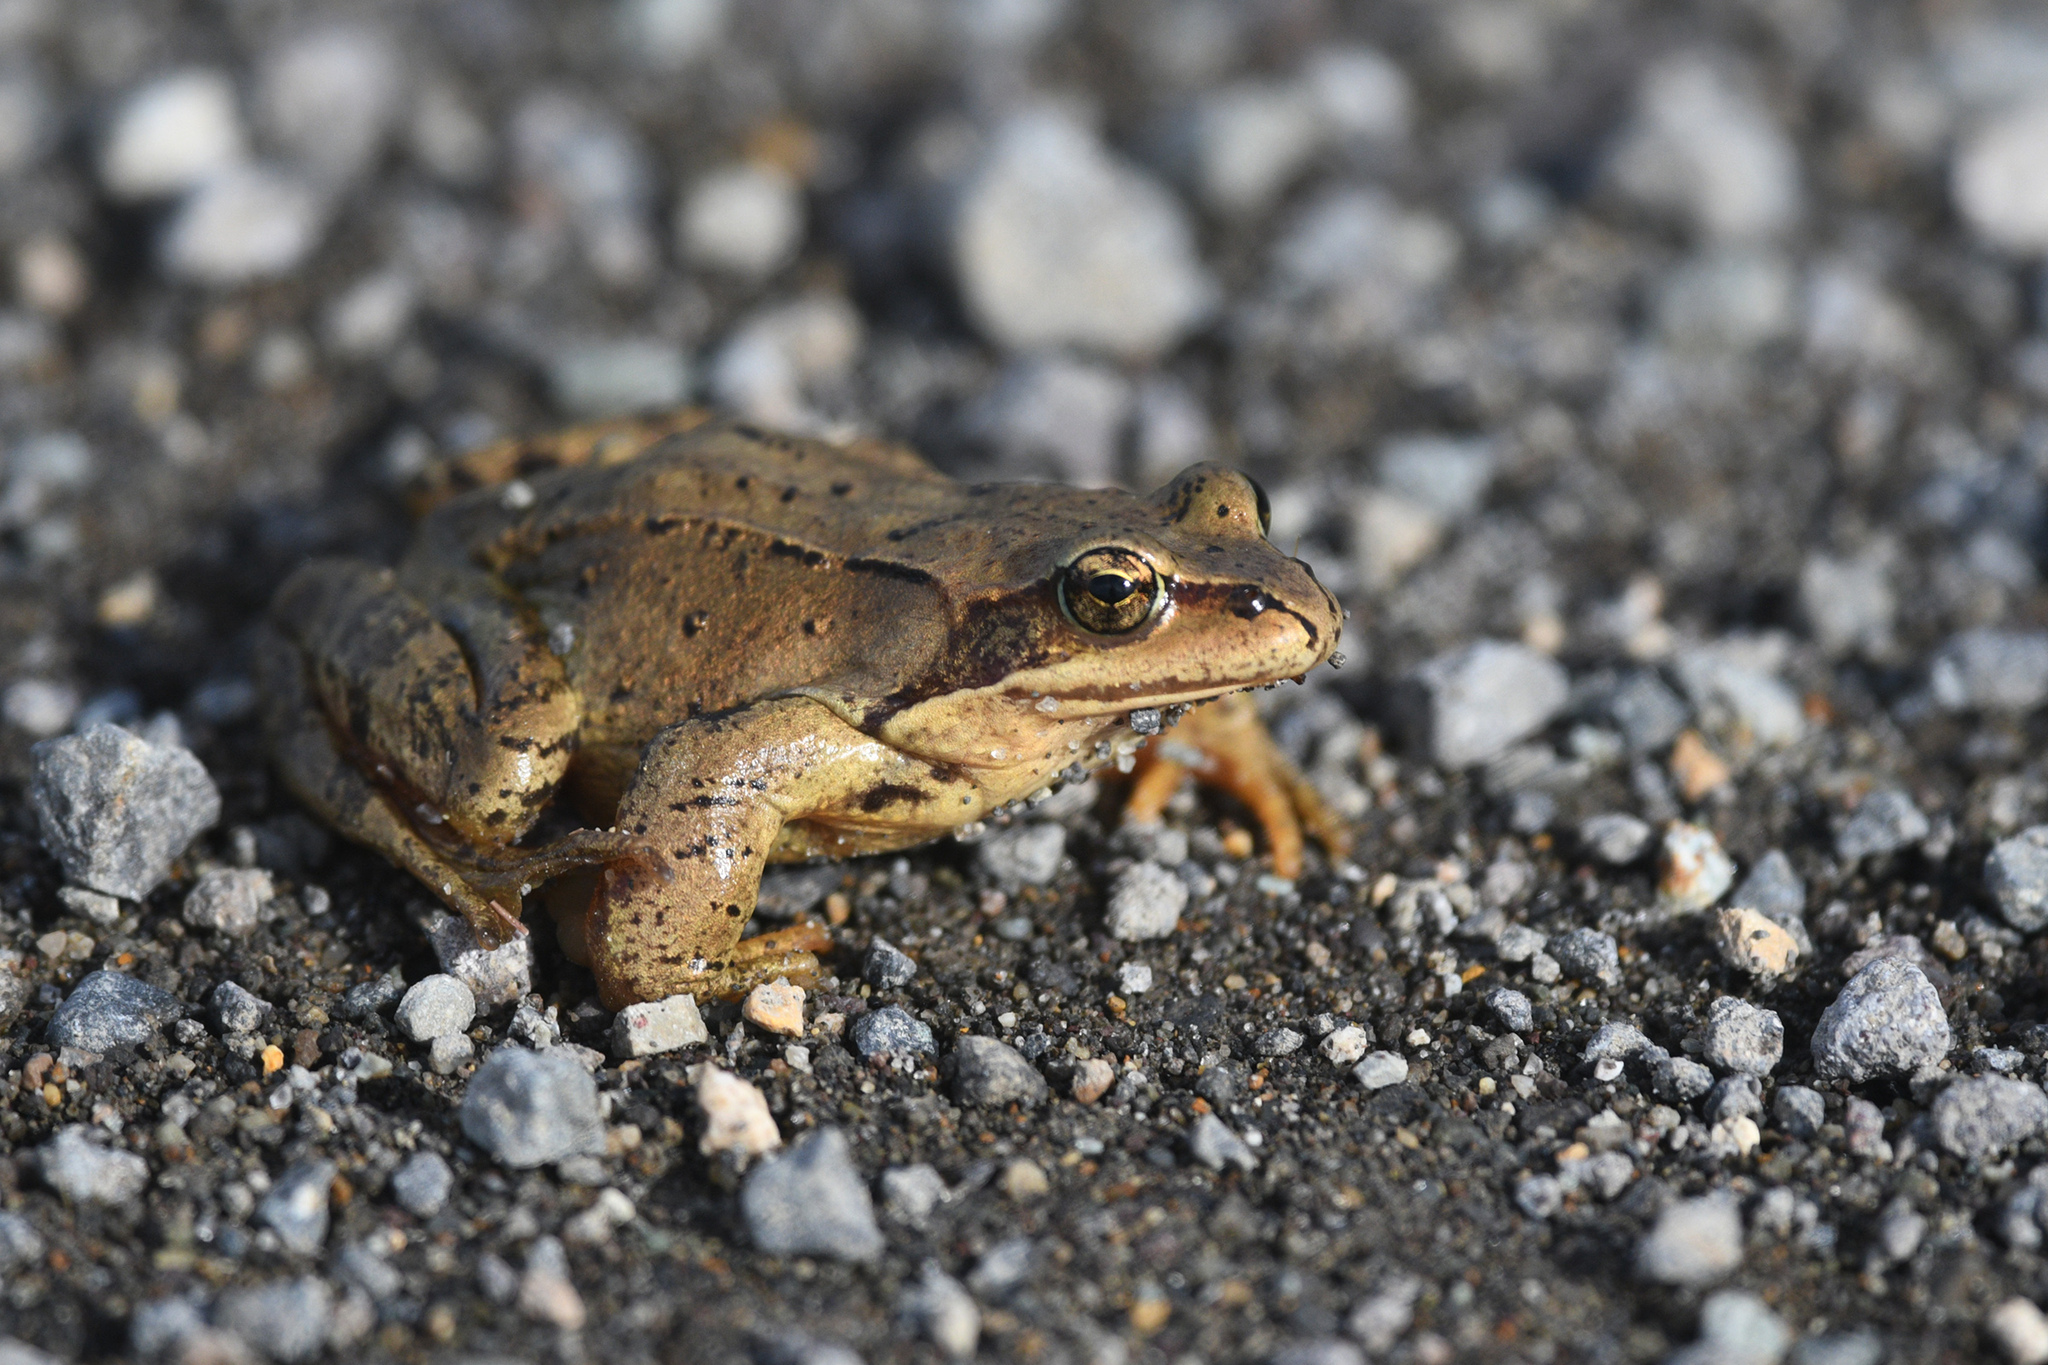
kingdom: Animalia
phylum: Chordata
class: Amphibia
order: Anura
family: Ranidae
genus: Rana
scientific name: Rana pirica
